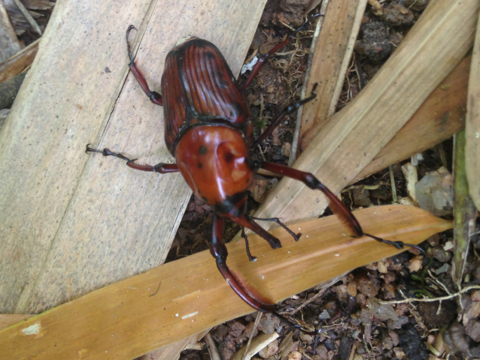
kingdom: Animalia
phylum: Arthropoda
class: Insecta
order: Coleoptera
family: Dryophthoridae
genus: Cyrtotrachelus
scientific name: Cyrtotrachelus thompsoni
